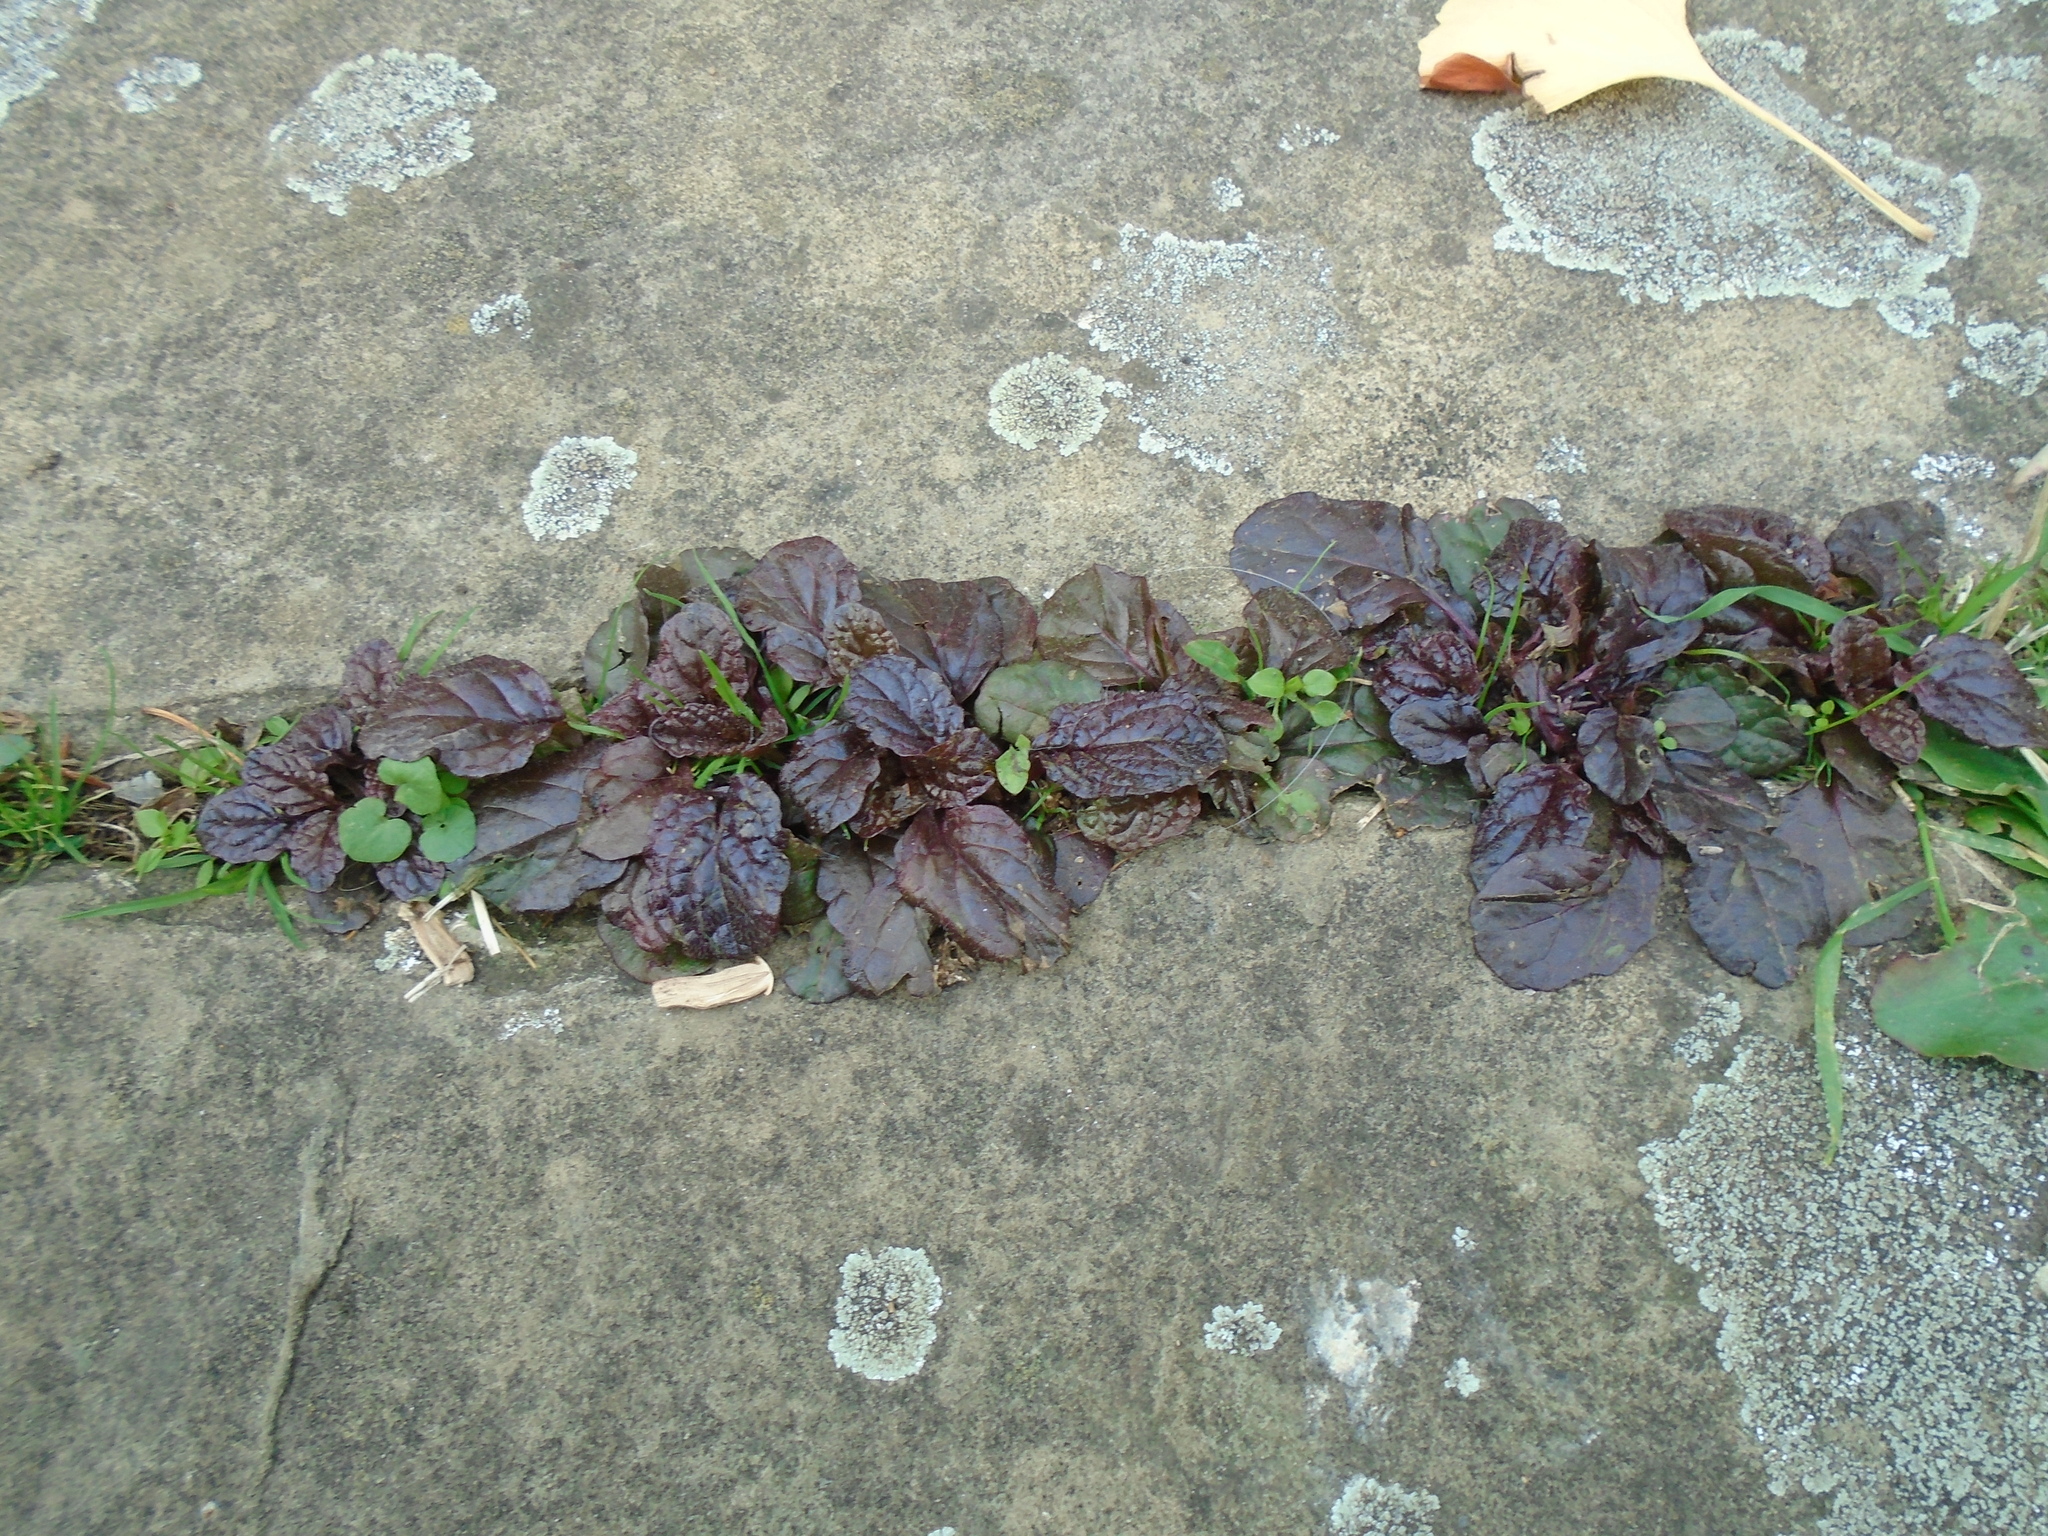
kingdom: Plantae
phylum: Tracheophyta
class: Magnoliopsida
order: Lamiales
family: Lamiaceae
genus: Ajuga
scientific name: Ajuga reptans
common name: Bugle
